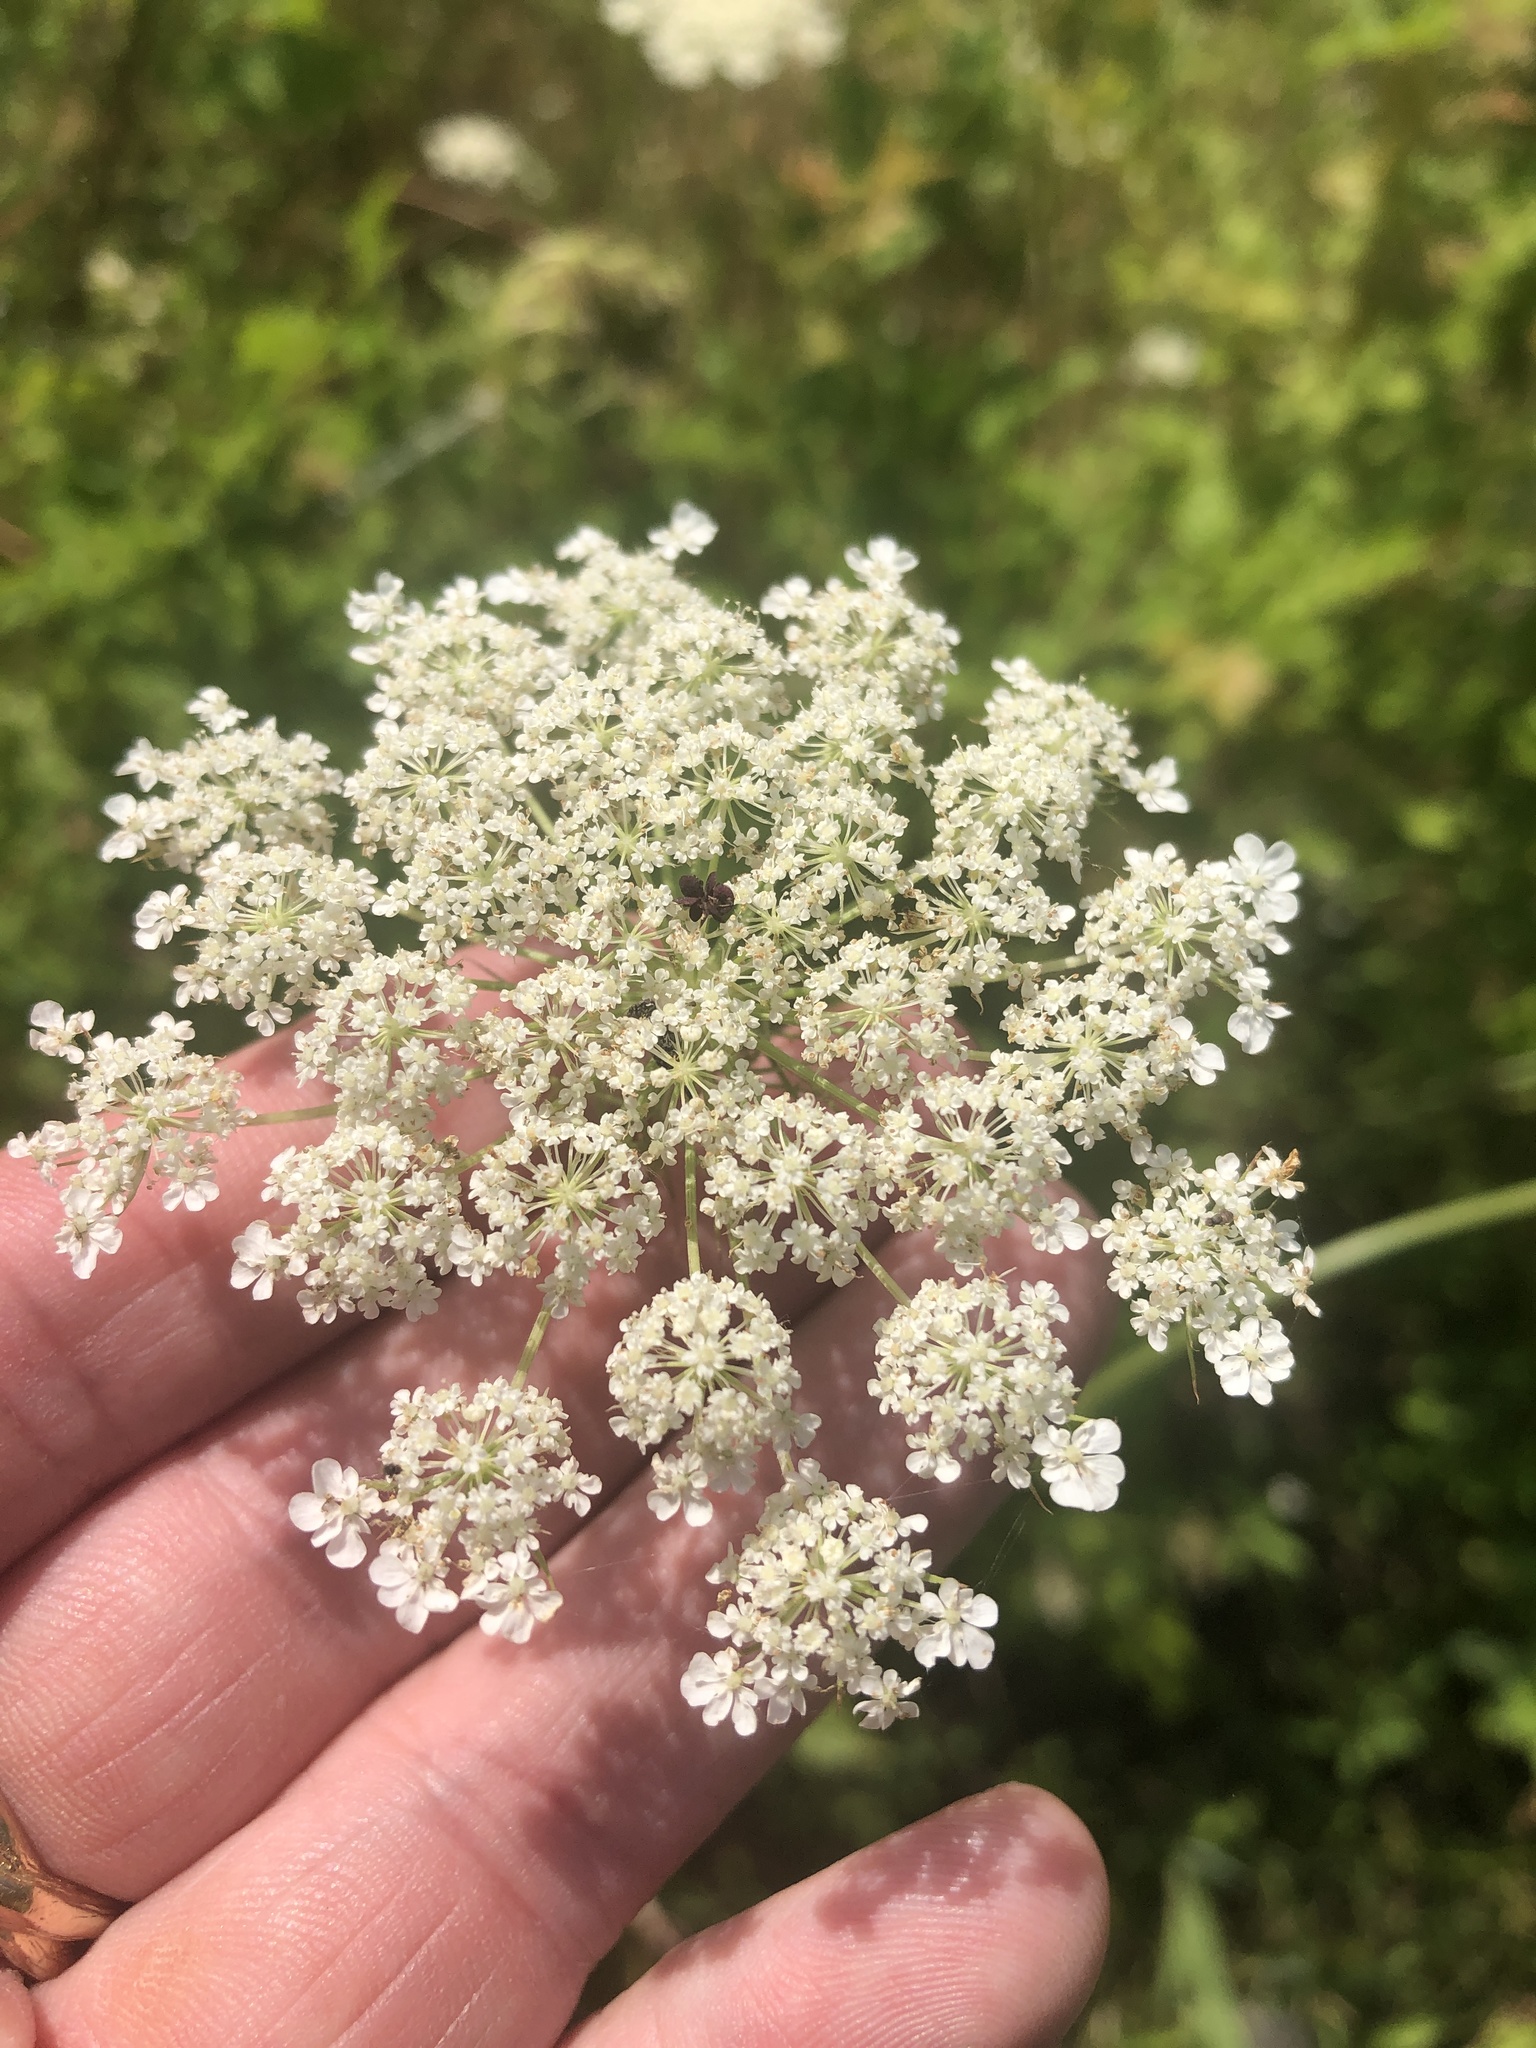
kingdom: Plantae
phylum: Tracheophyta
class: Magnoliopsida
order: Apiales
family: Apiaceae
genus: Daucus
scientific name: Daucus carota
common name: Wild carrot
